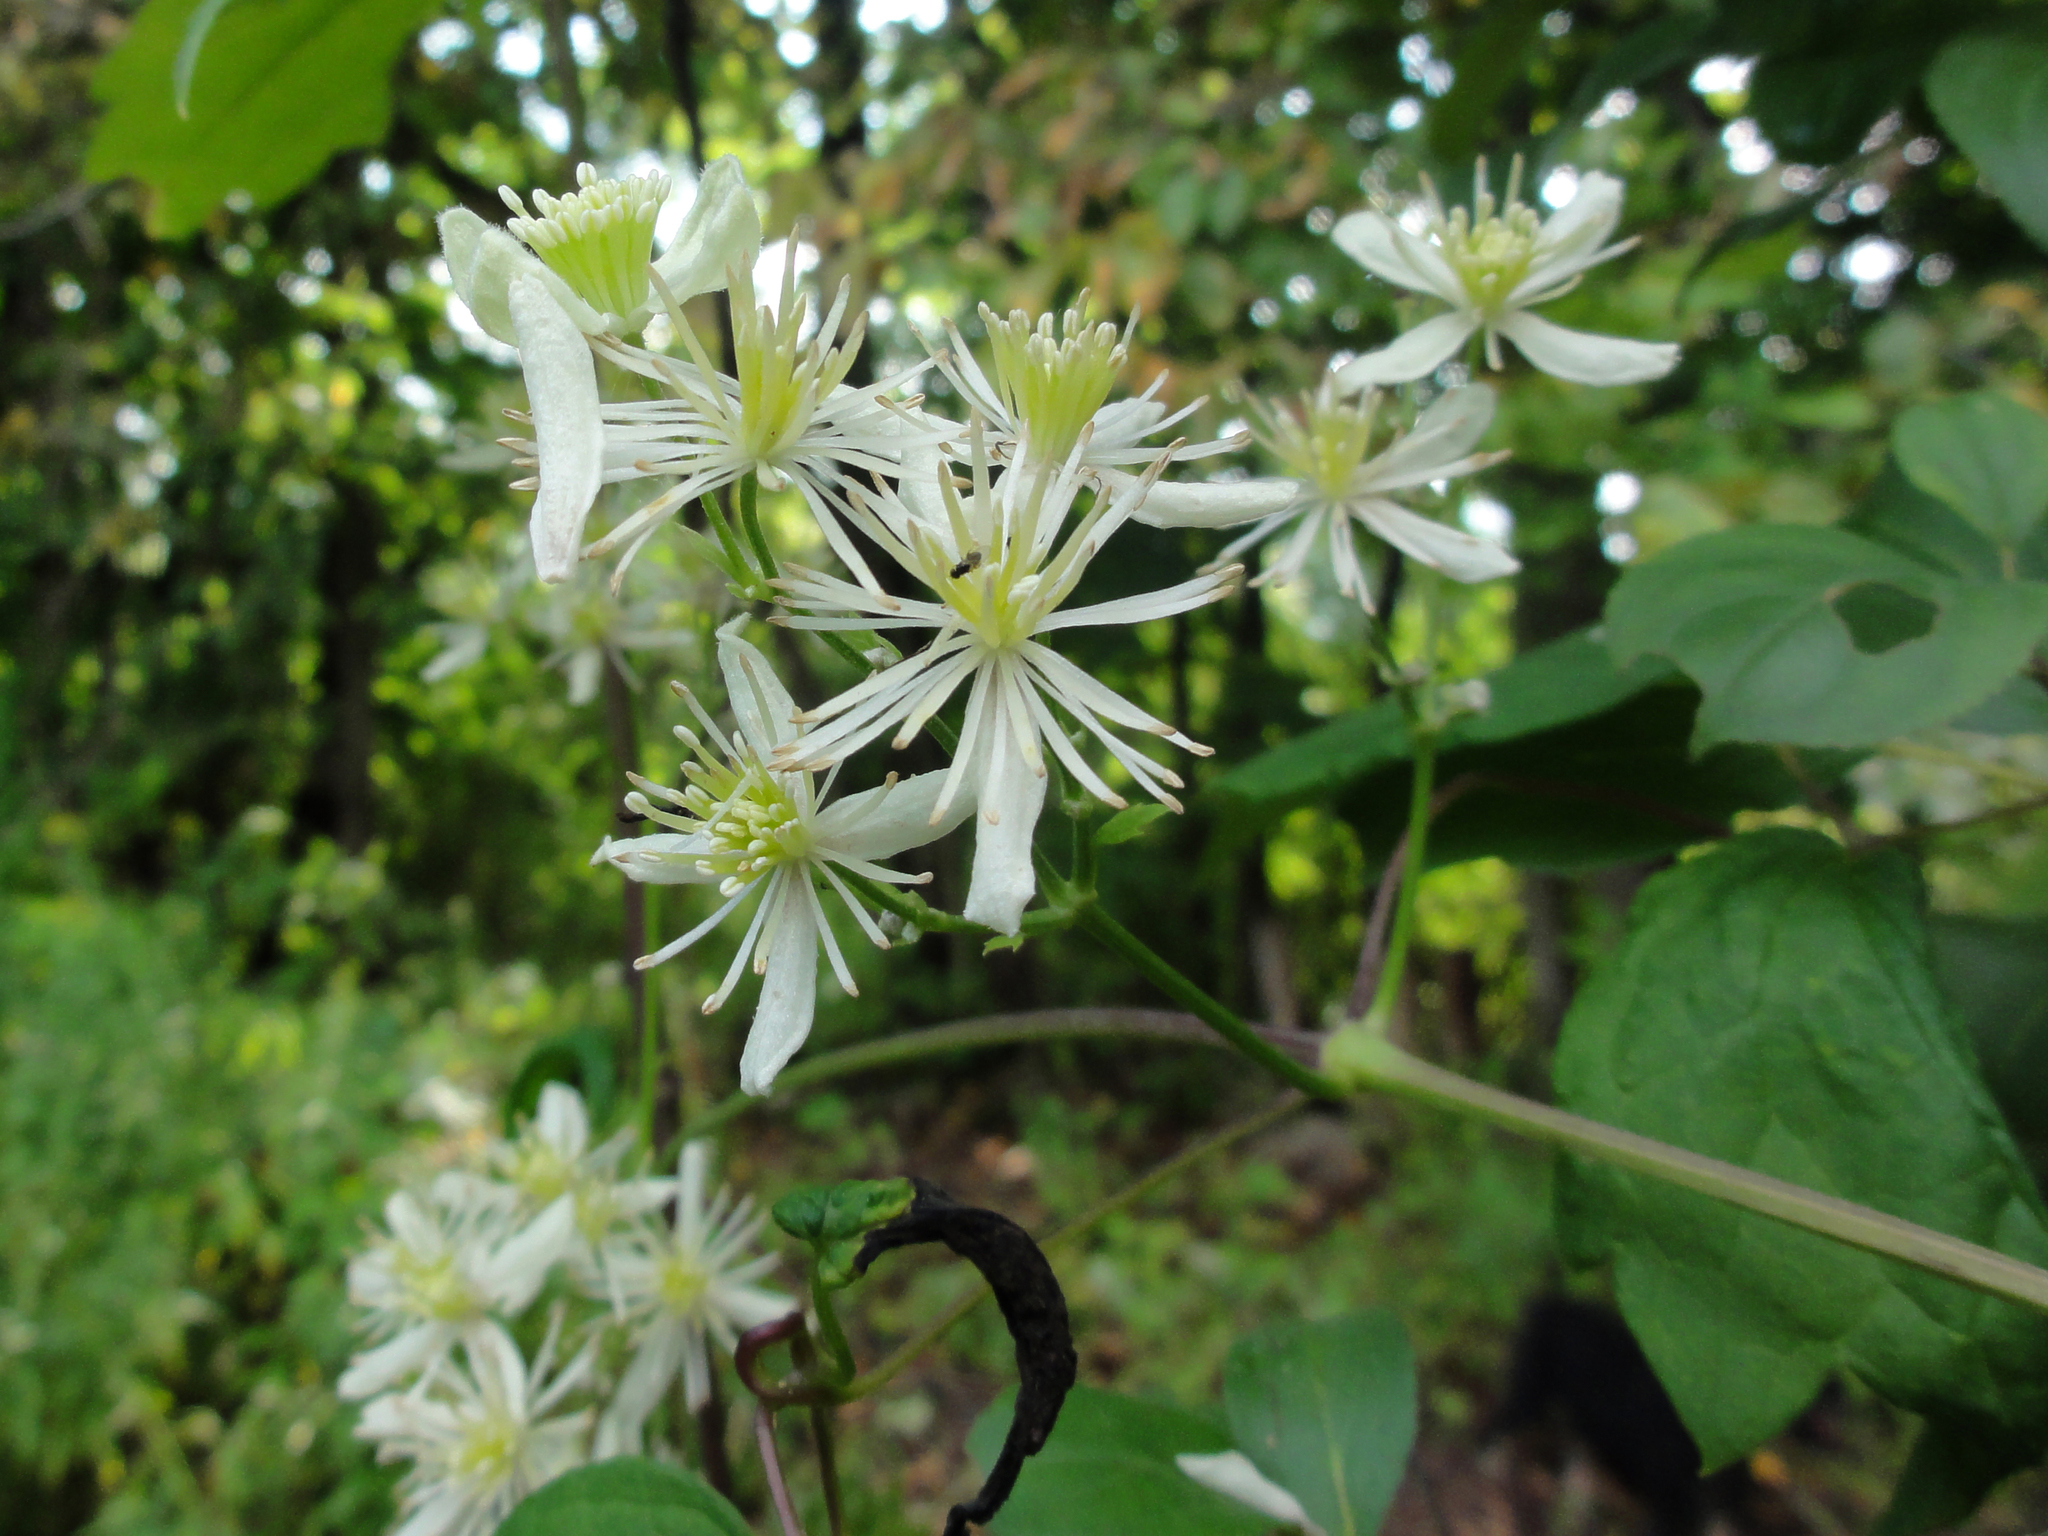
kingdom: Plantae
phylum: Tracheophyta
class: Magnoliopsida
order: Ranunculales
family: Ranunculaceae
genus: Clematis
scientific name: Clematis virginiana
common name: Virgin's-bower
